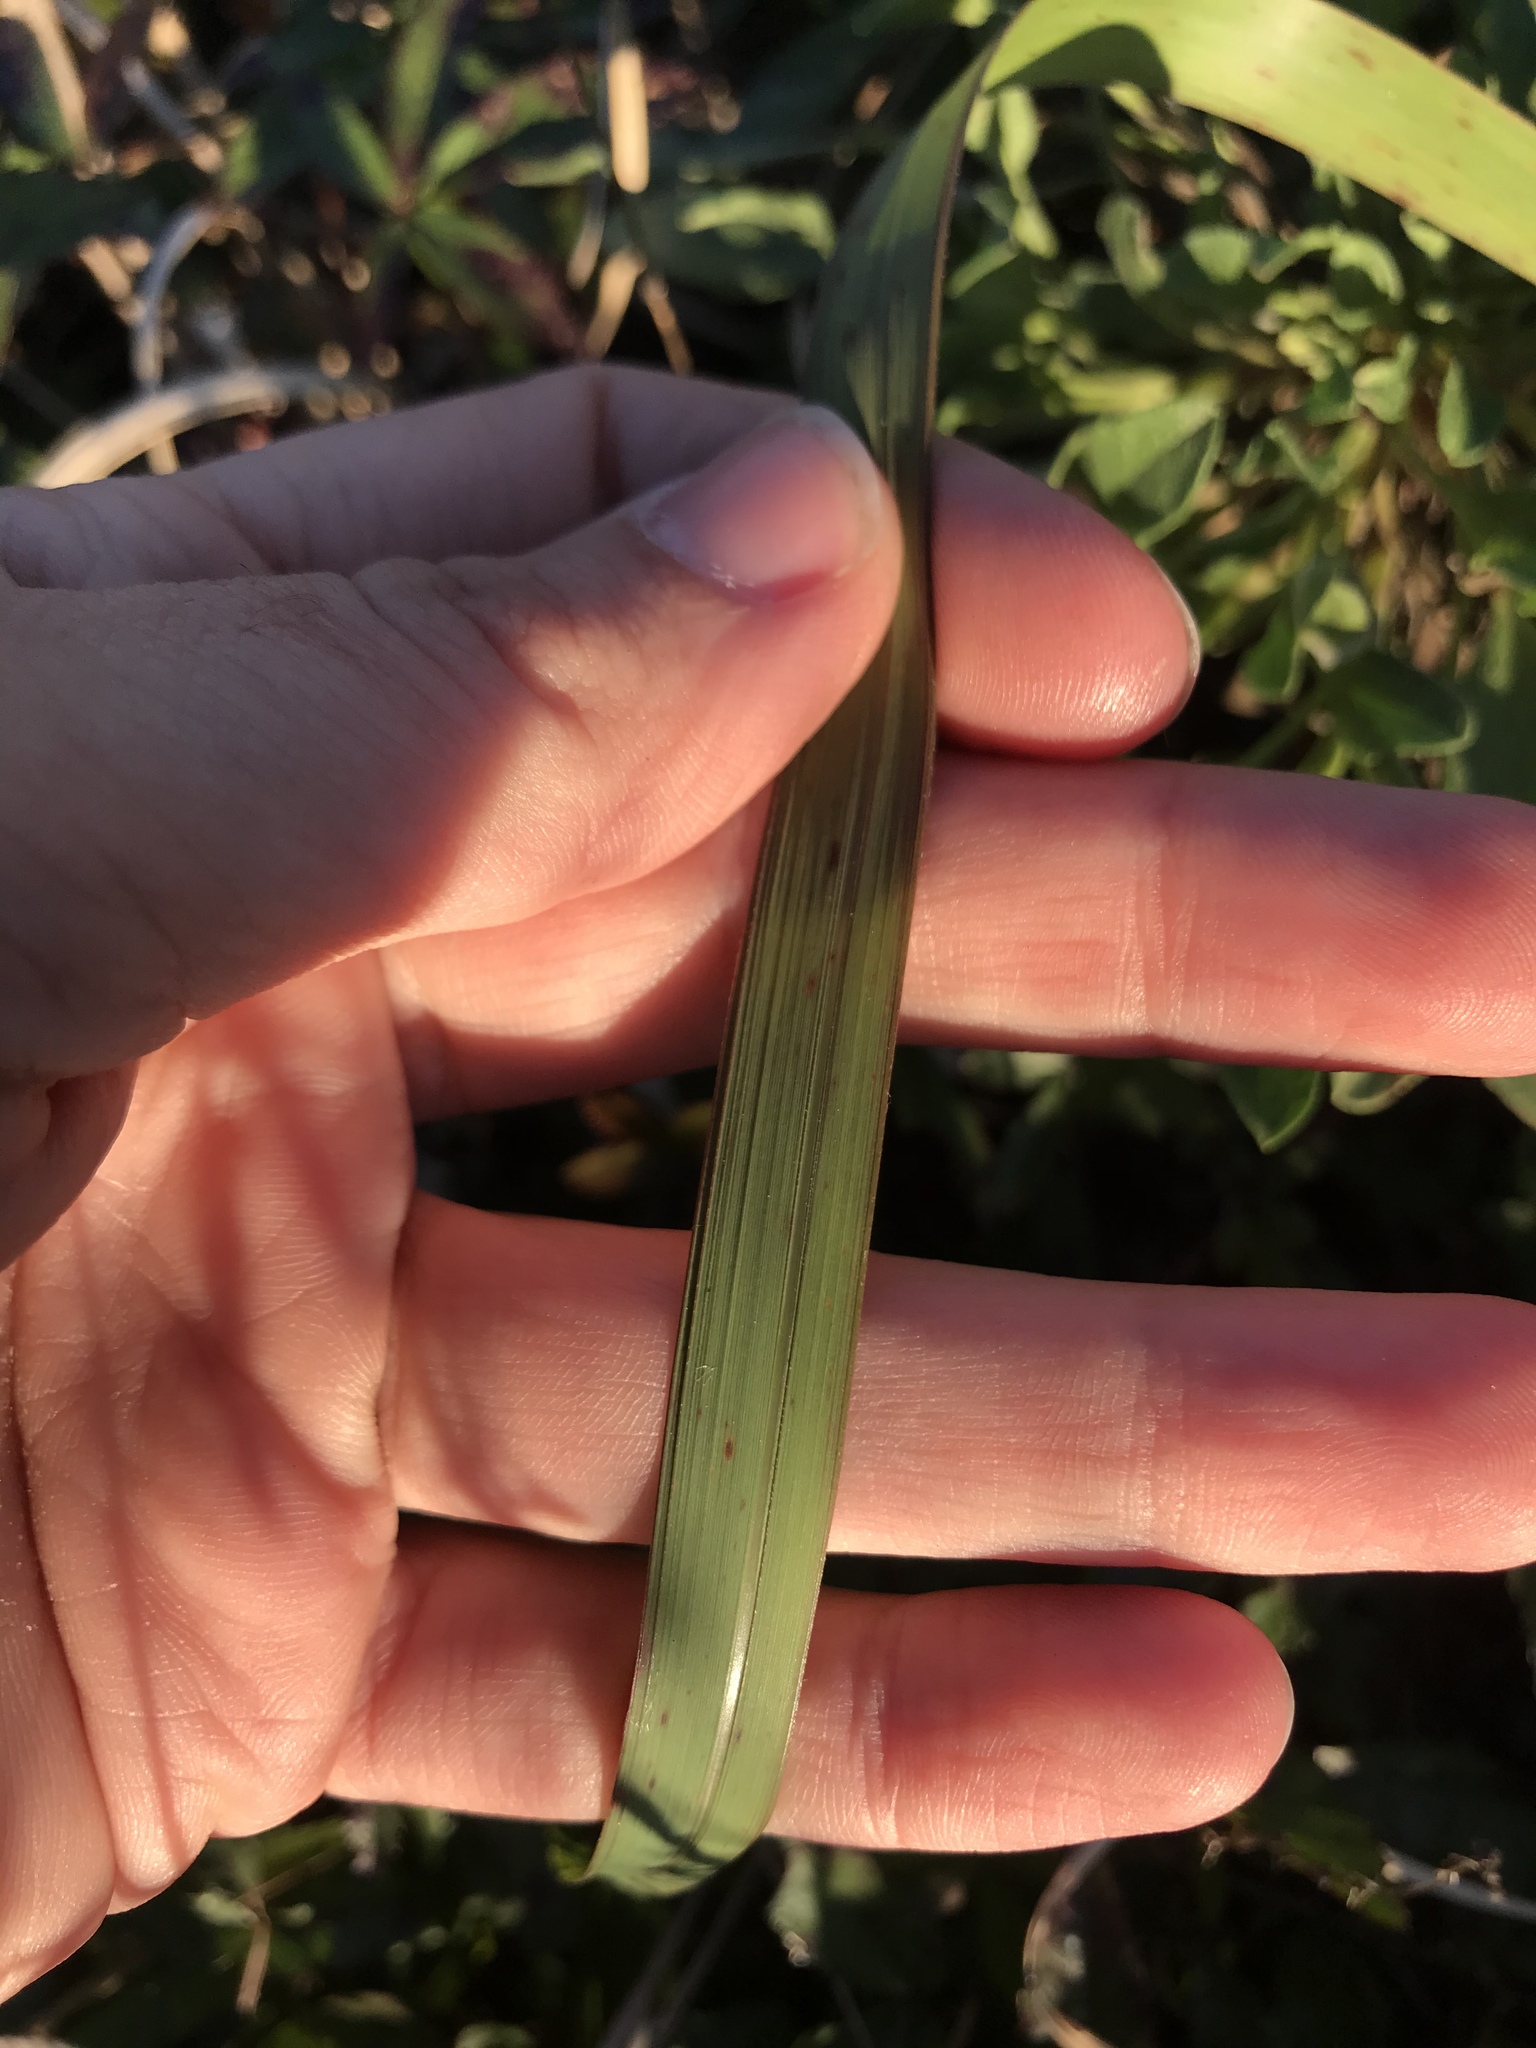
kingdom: Plantae
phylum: Tracheophyta
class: Liliopsida
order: Poales
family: Poaceae
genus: Imperata
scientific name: Imperata cylindrica
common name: Cogongrass
